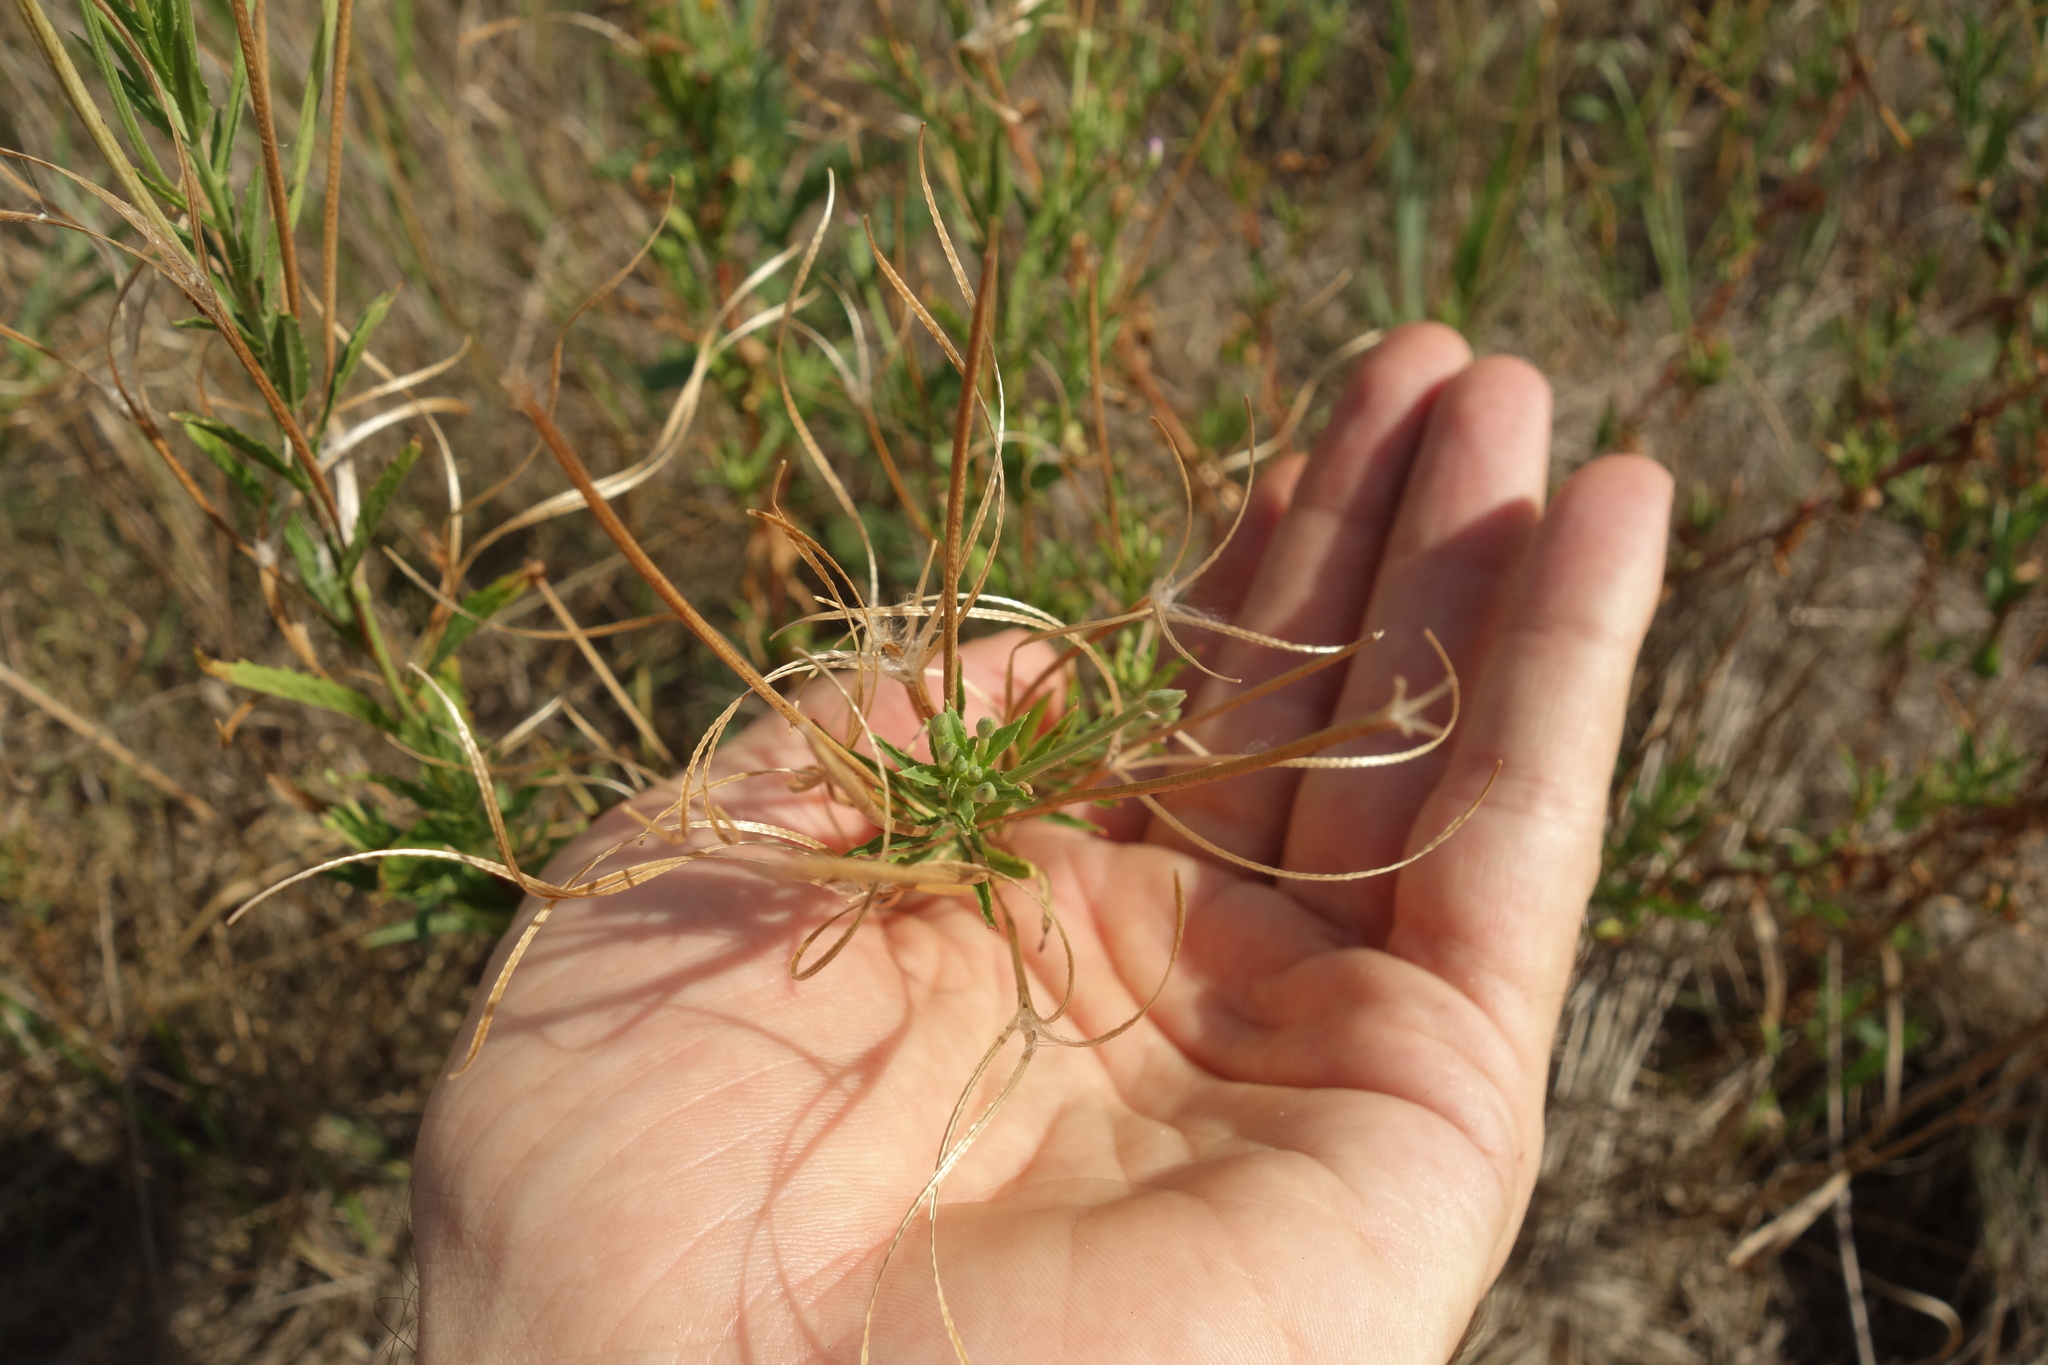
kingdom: Plantae
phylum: Tracheophyta
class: Magnoliopsida
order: Myrtales
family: Onagraceae
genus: Epilobium
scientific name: Epilobium tetragonum
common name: Square-stemmed willowherb
